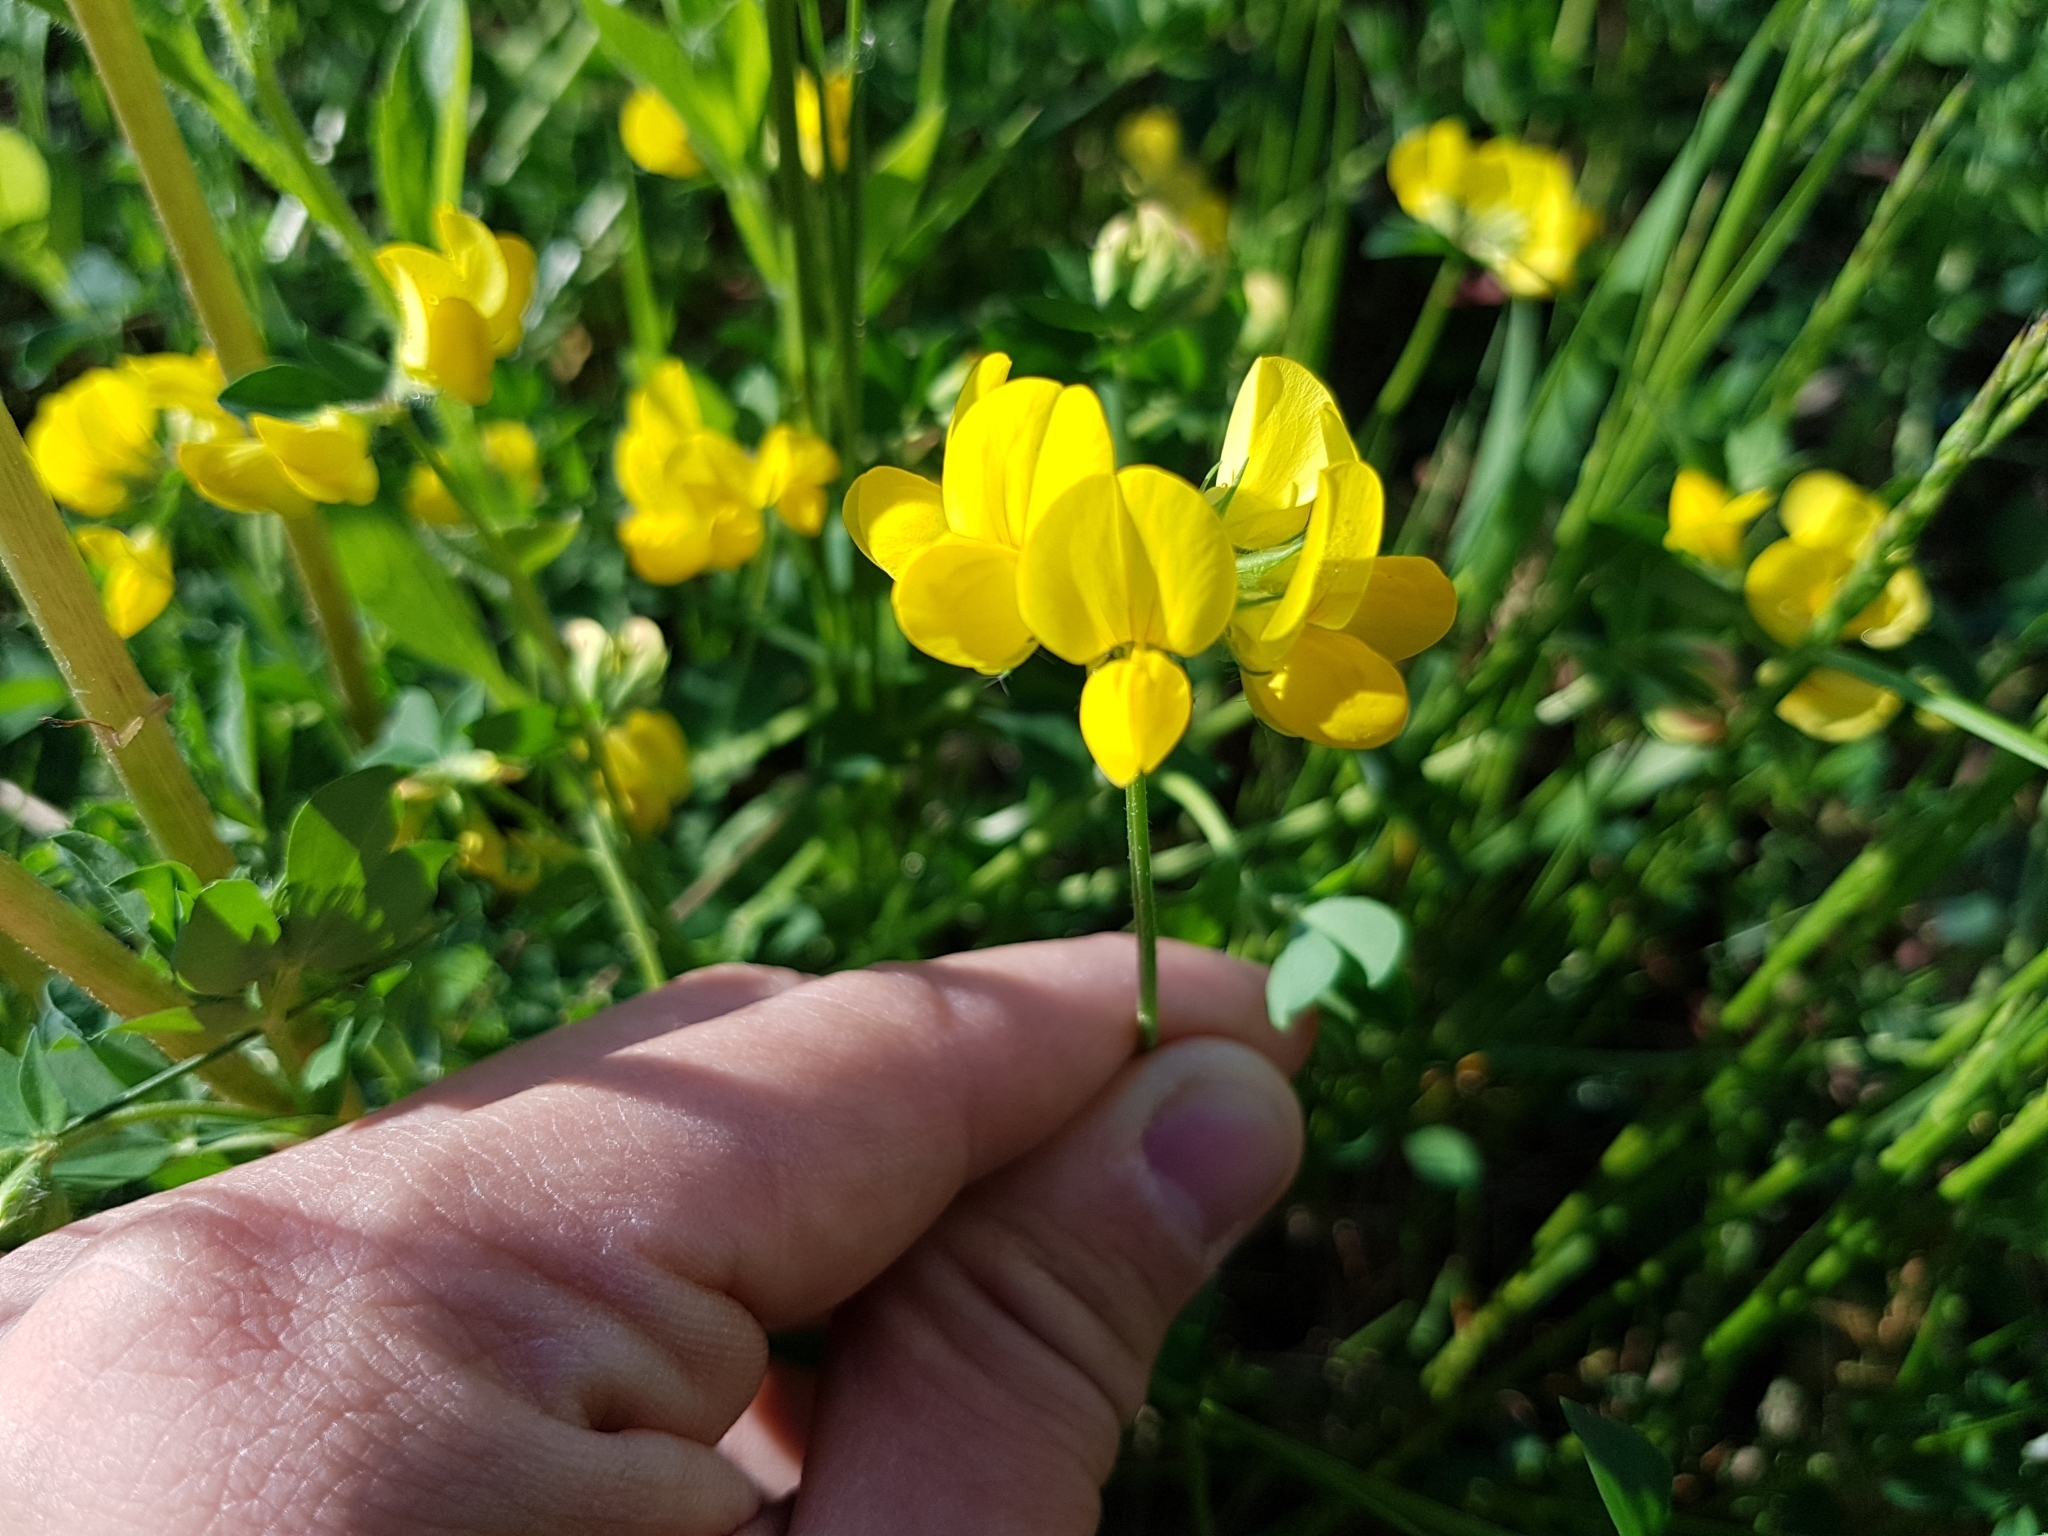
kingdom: Plantae
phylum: Tracheophyta
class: Magnoliopsida
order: Fabales
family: Fabaceae
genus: Lotus
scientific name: Lotus corniculatus
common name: Common bird's-foot-trefoil
